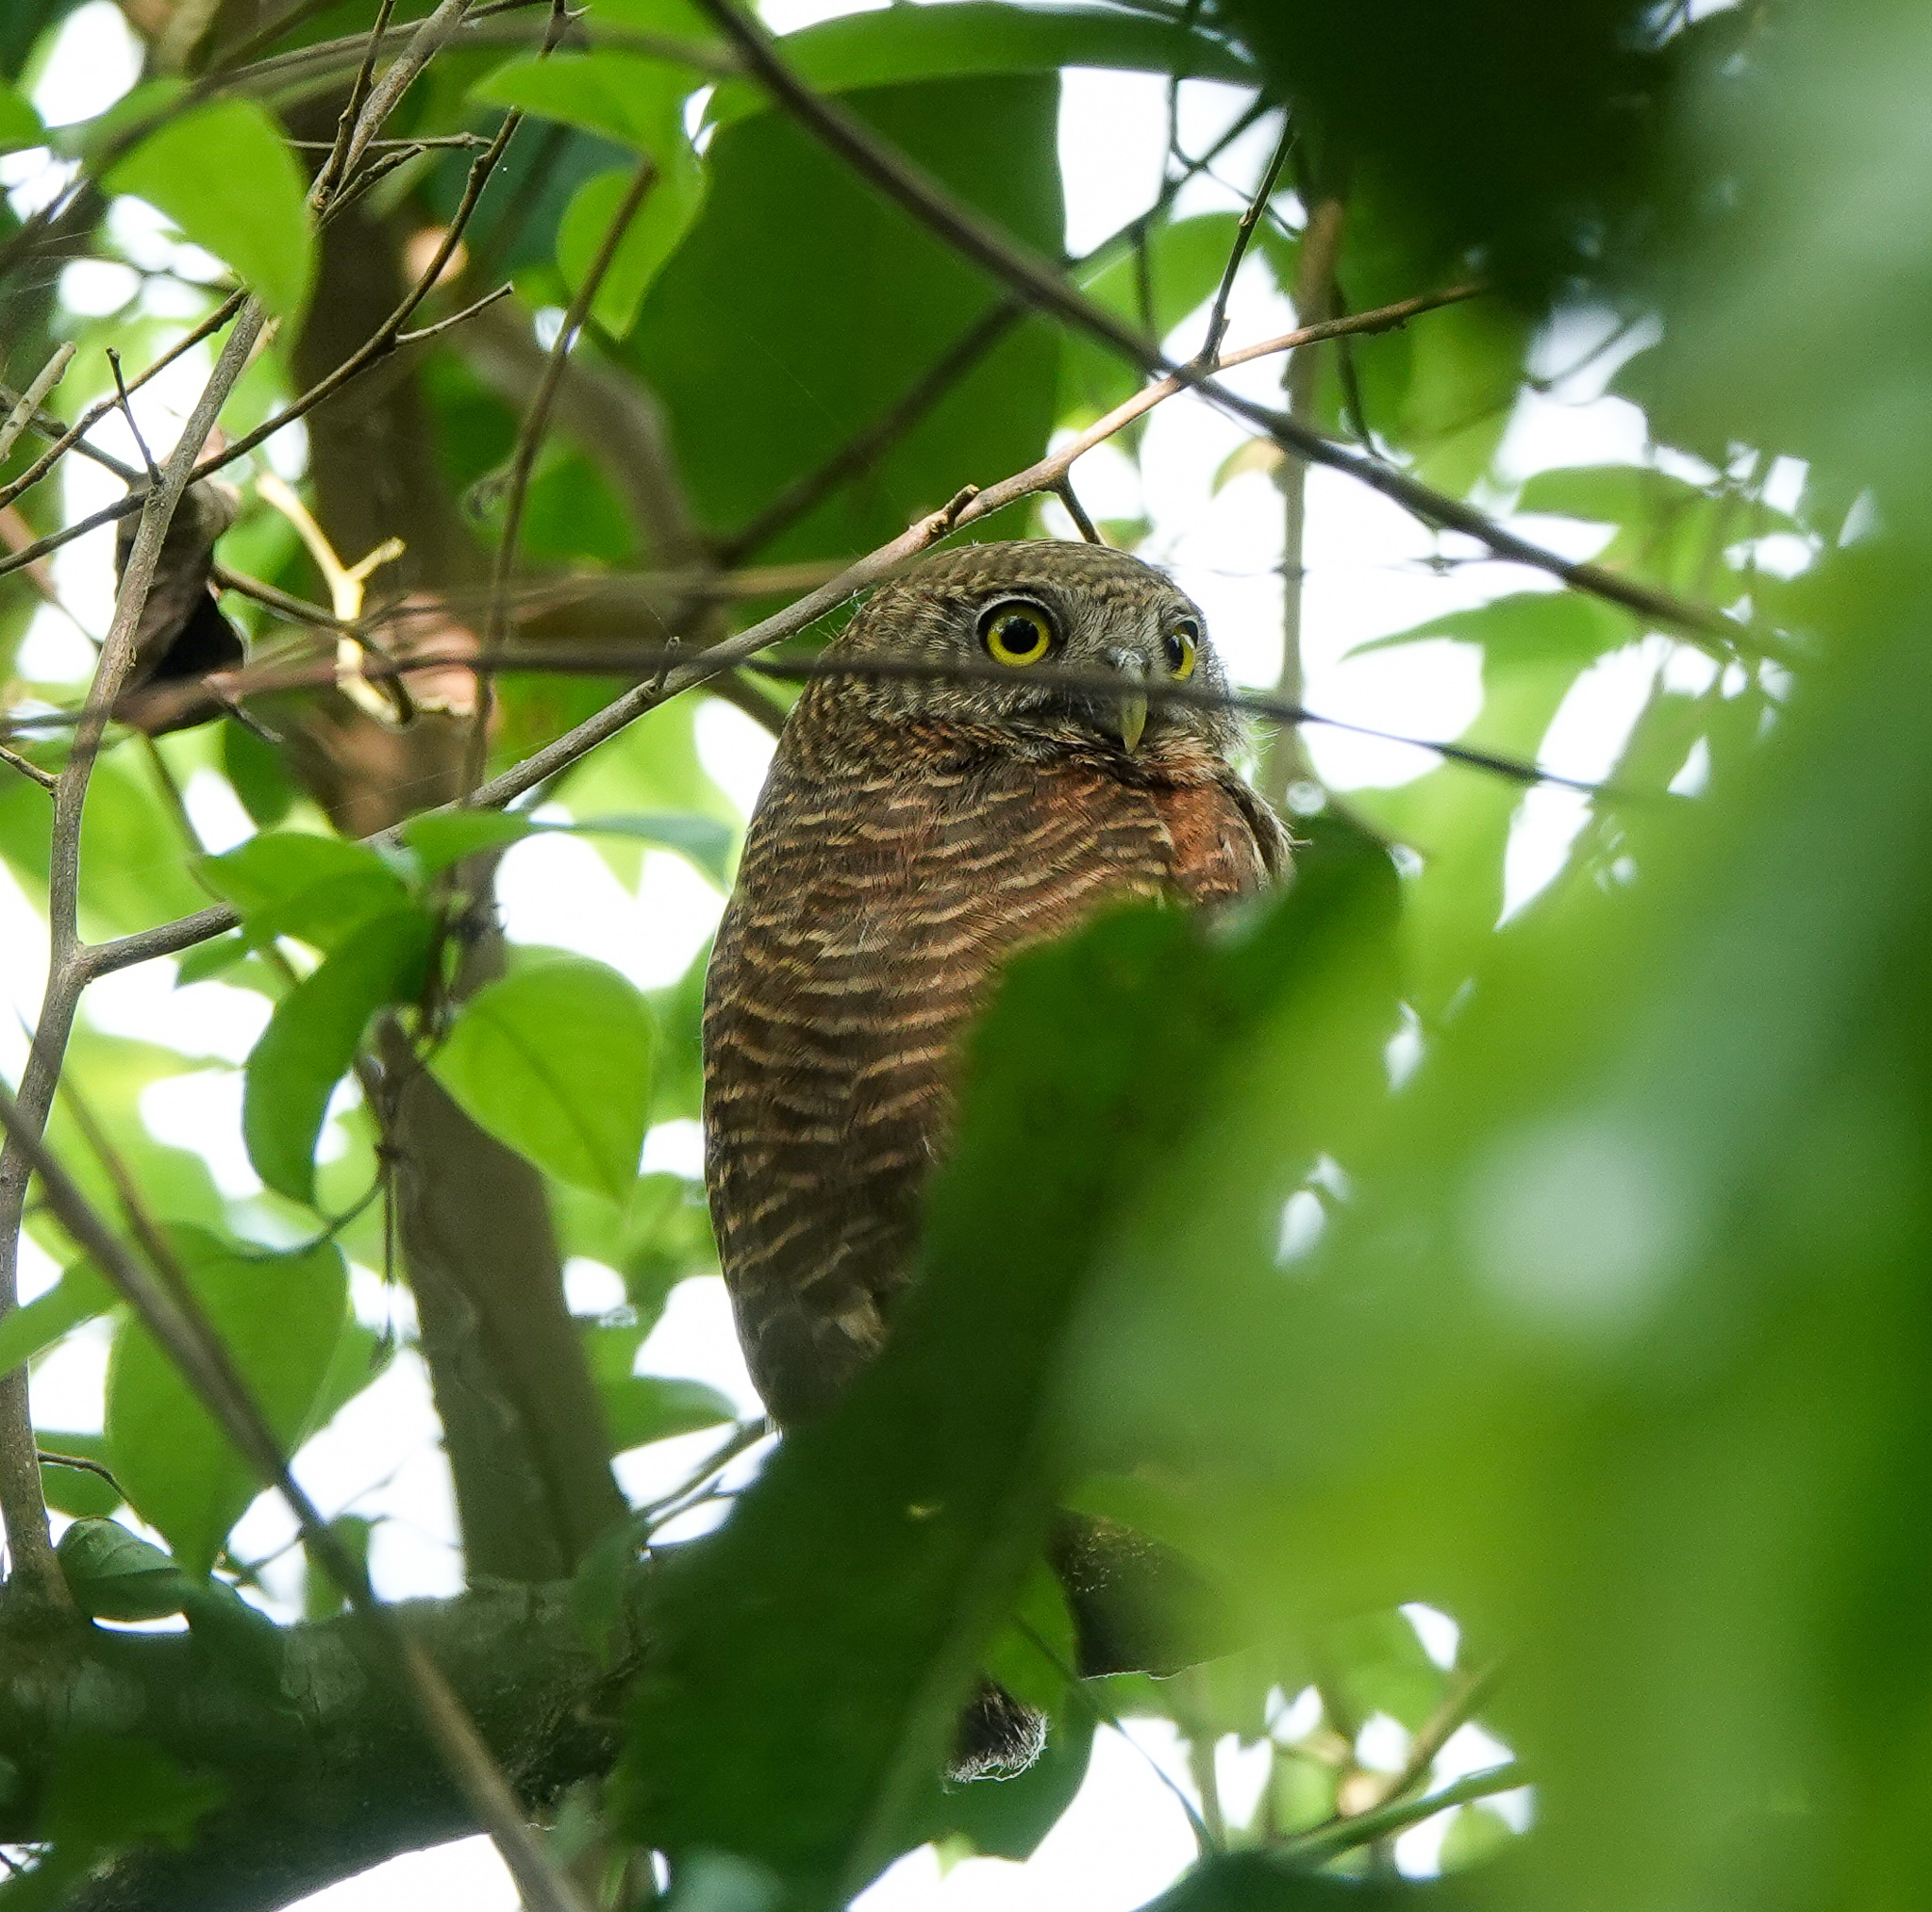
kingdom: Animalia
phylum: Chordata
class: Aves
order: Strigiformes
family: Strigidae
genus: Glaucidium
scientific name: Glaucidium cuculoides
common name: Asian barred owlet
